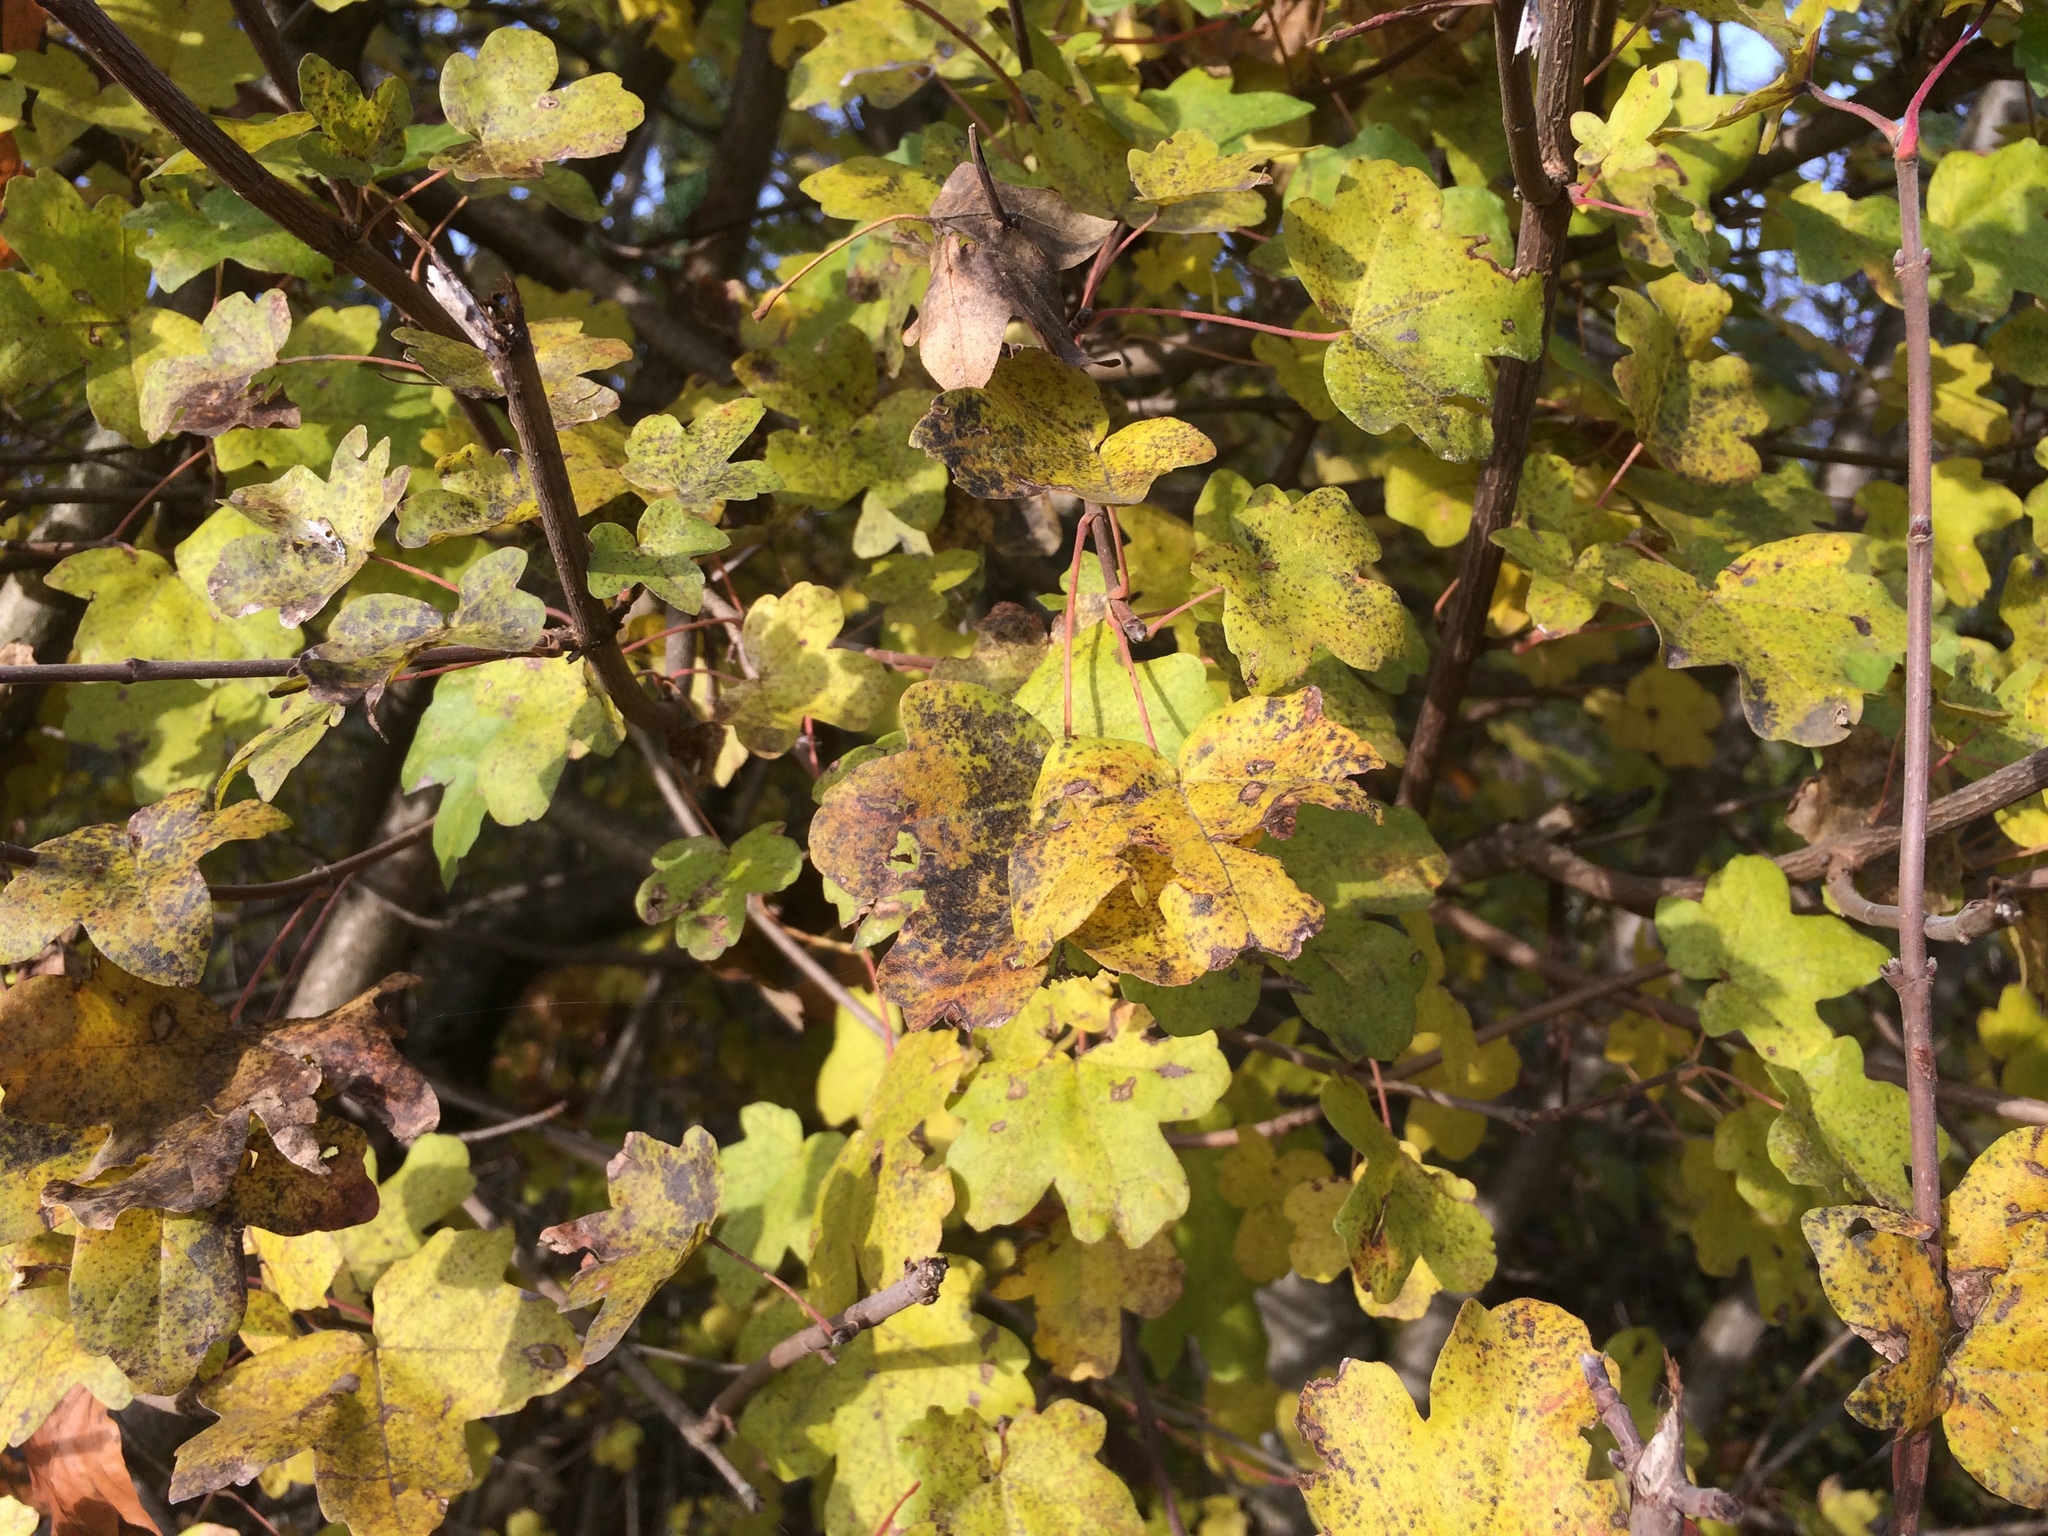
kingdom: Plantae
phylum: Tracheophyta
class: Magnoliopsida
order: Sapindales
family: Sapindaceae
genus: Acer
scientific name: Acer campestre
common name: Field maple
